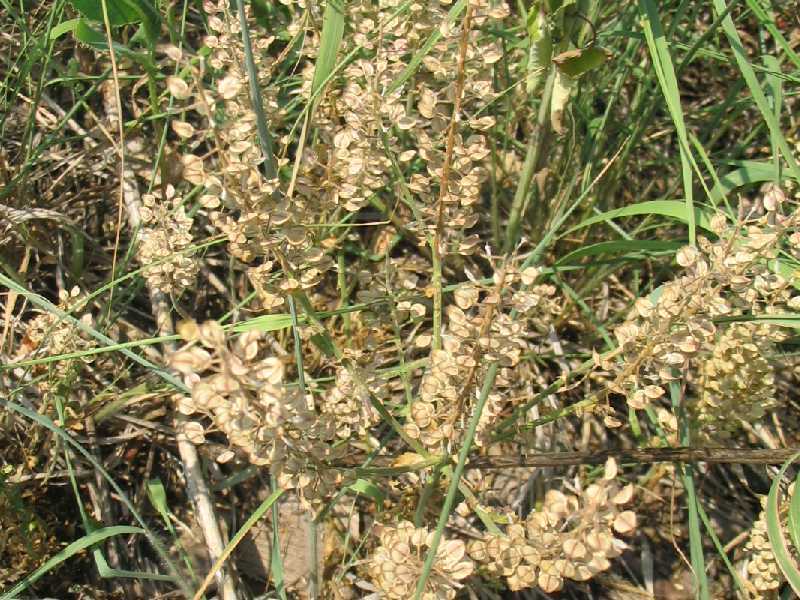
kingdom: Plantae
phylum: Tracheophyta
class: Magnoliopsida
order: Brassicales
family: Brassicaceae
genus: Lepidium
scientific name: Lepidium virginicum
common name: Least pepperwort
